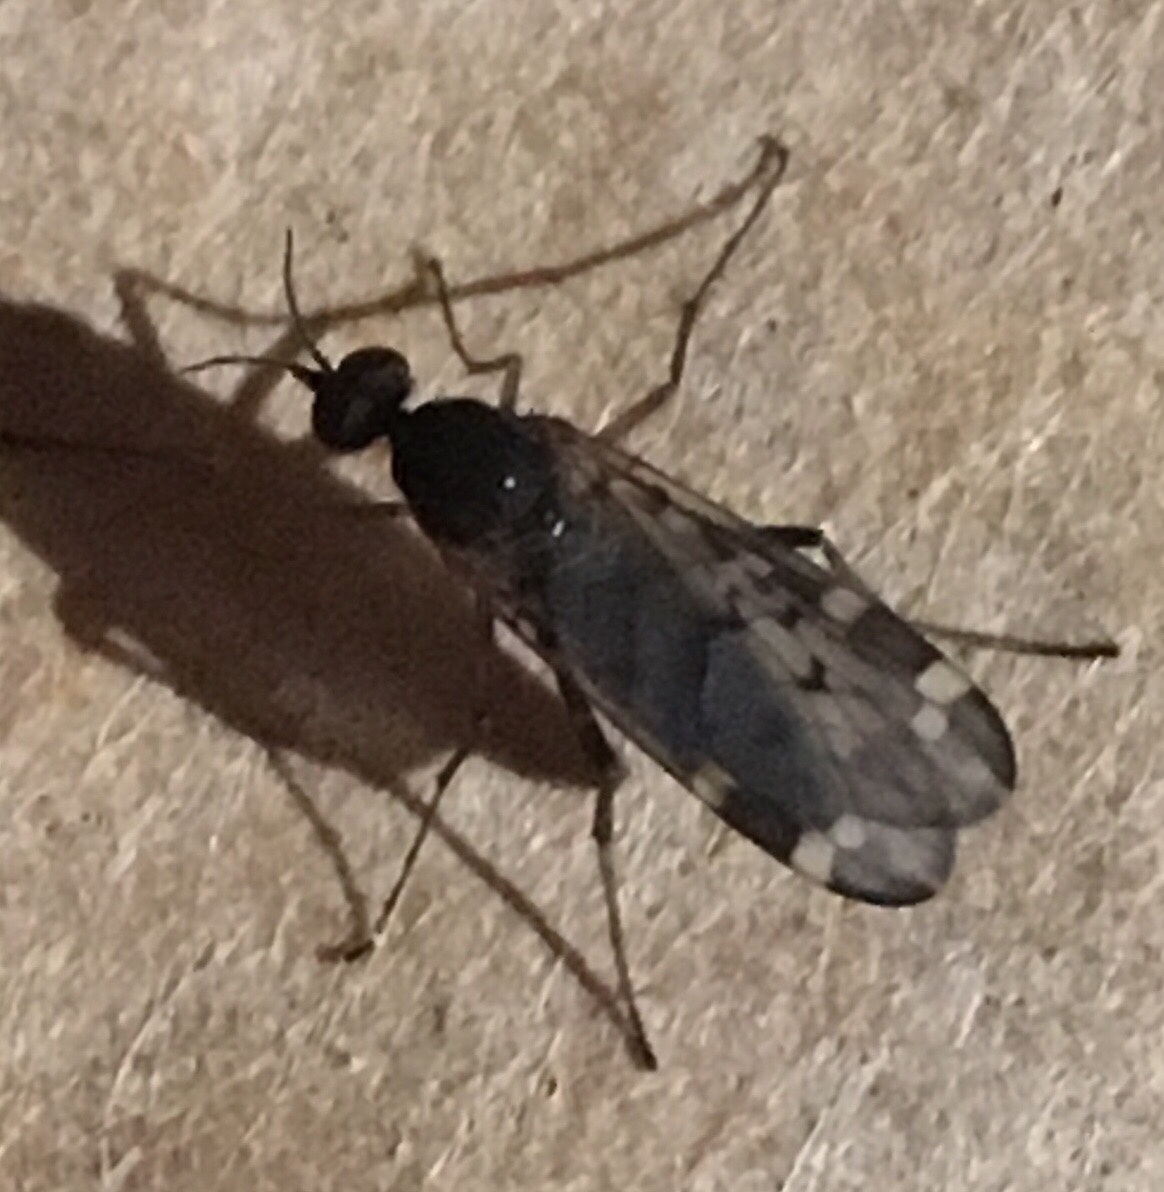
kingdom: Animalia
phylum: Arthropoda
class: Insecta
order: Diptera
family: Anisopodidae
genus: Sylvicola
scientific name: Sylvicola alternata
